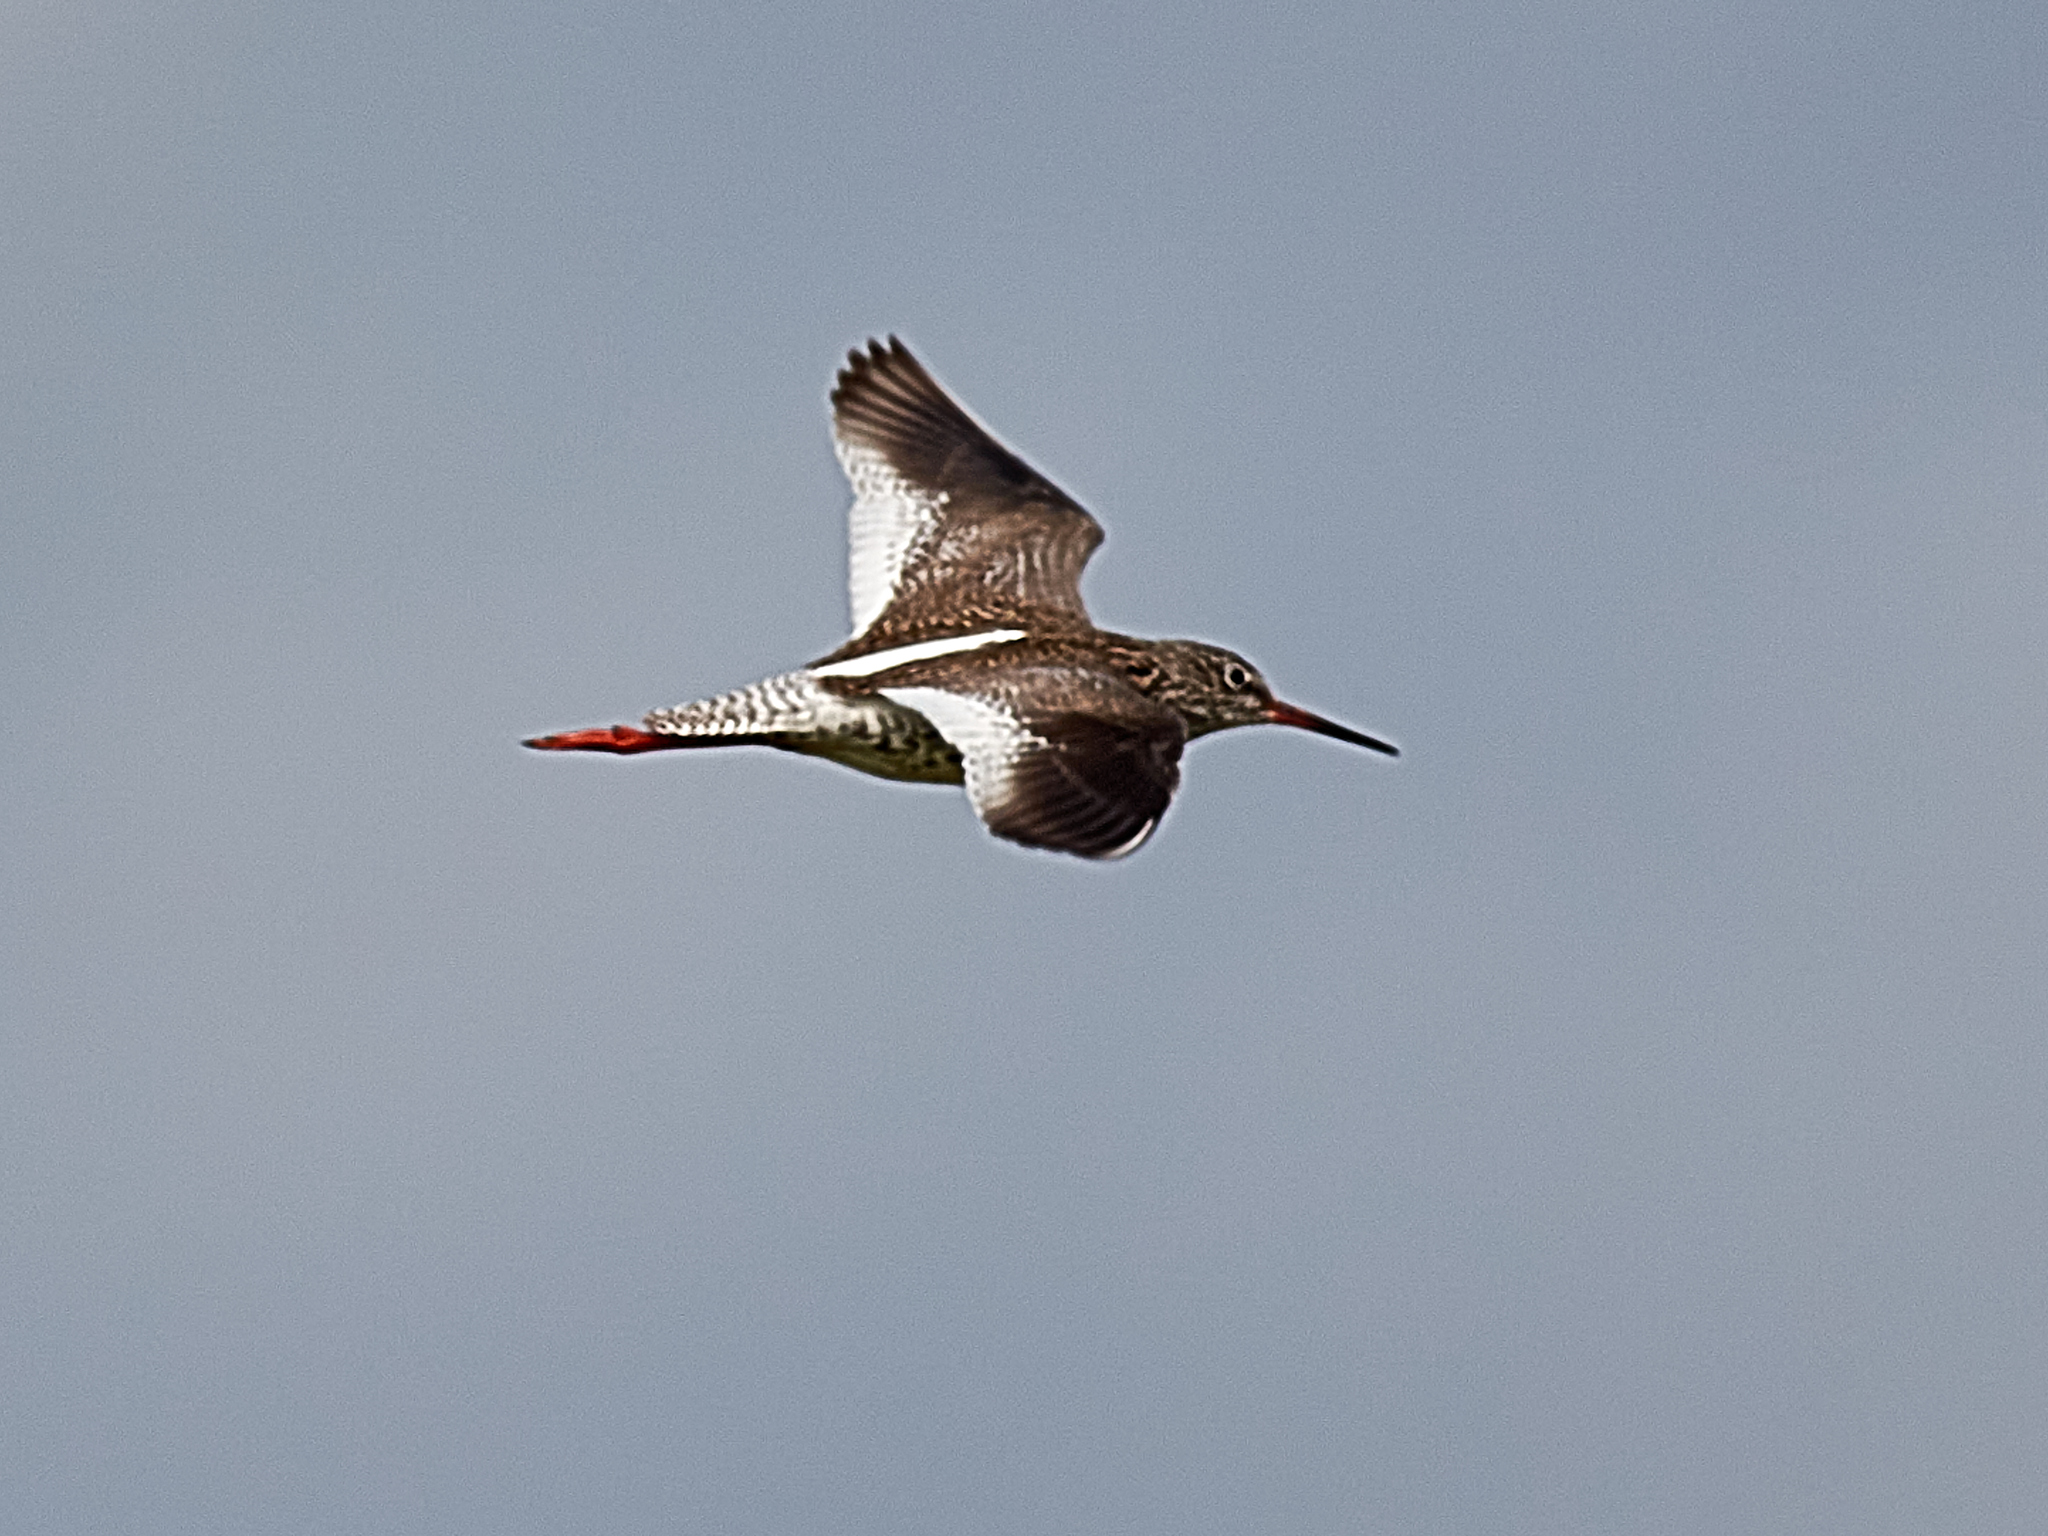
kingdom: Animalia
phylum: Chordata
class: Aves
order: Charadriiformes
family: Scolopacidae
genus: Tringa
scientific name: Tringa totanus
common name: Common redshank
